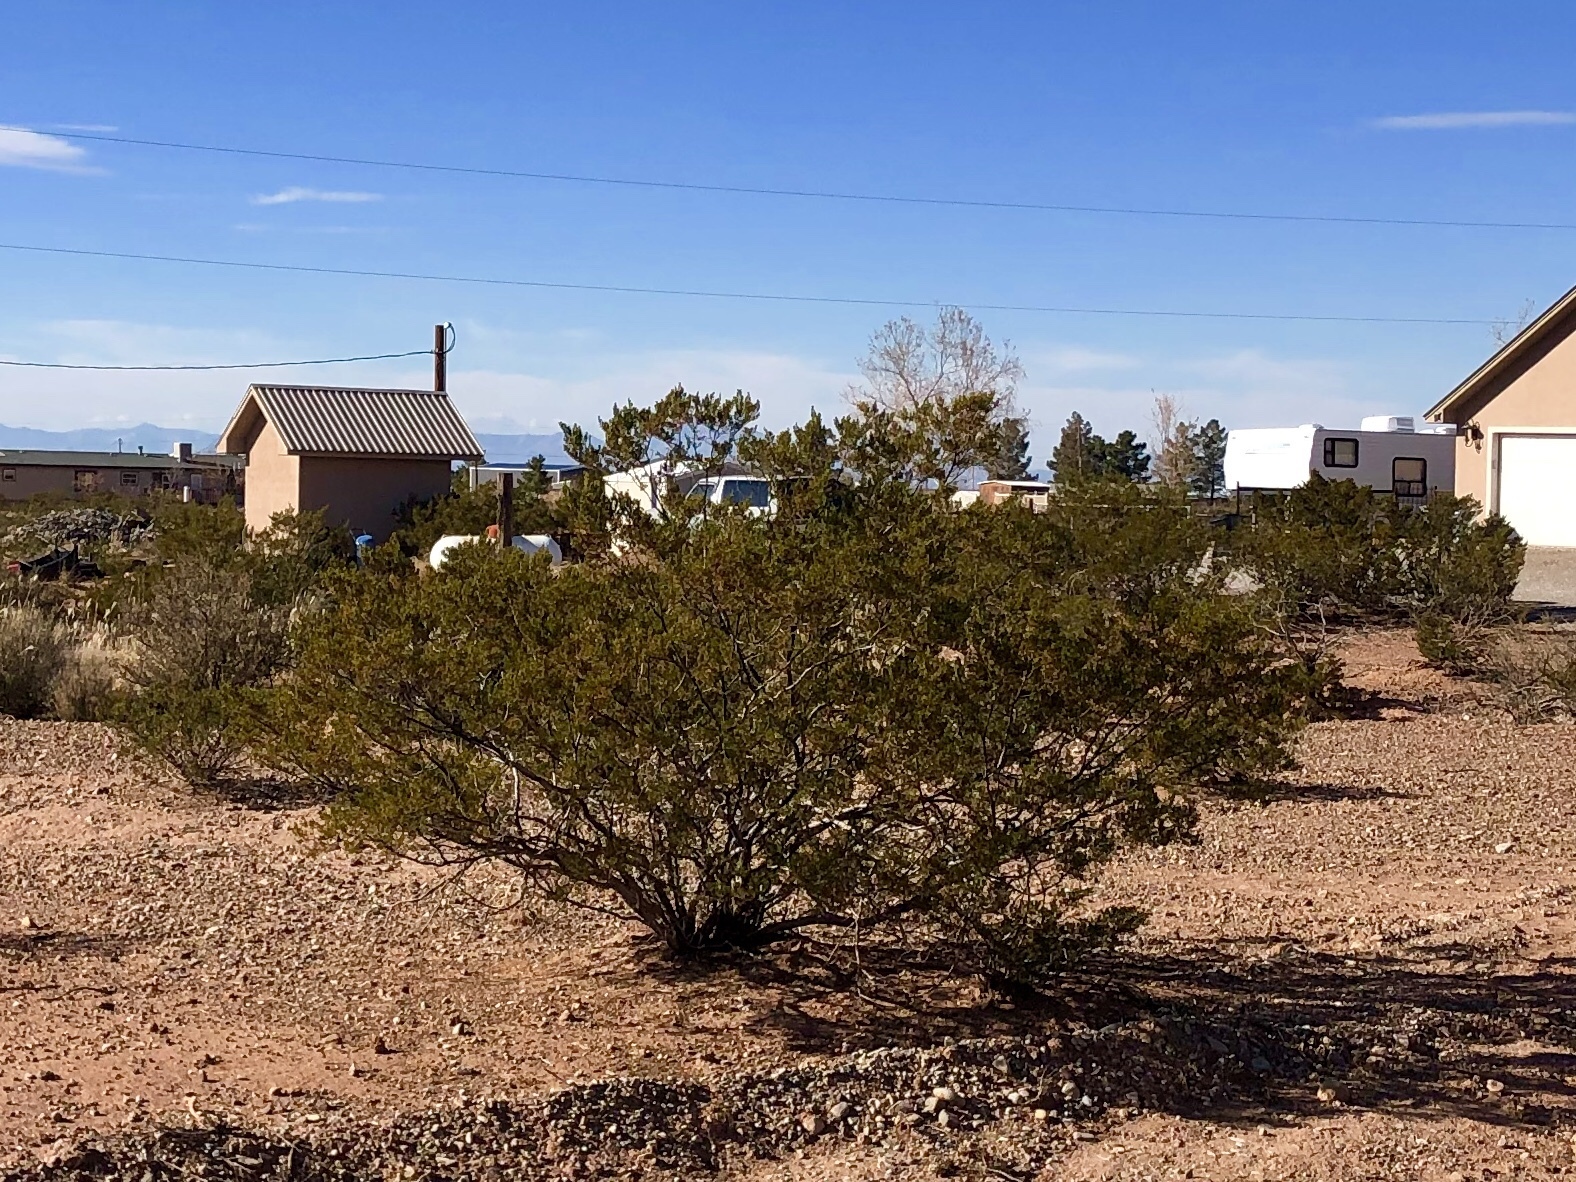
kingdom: Plantae
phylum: Tracheophyta
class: Magnoliopsida
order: Zygophyllales
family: Zygophyllaceae
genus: Larrea
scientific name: Larrea tridentata
